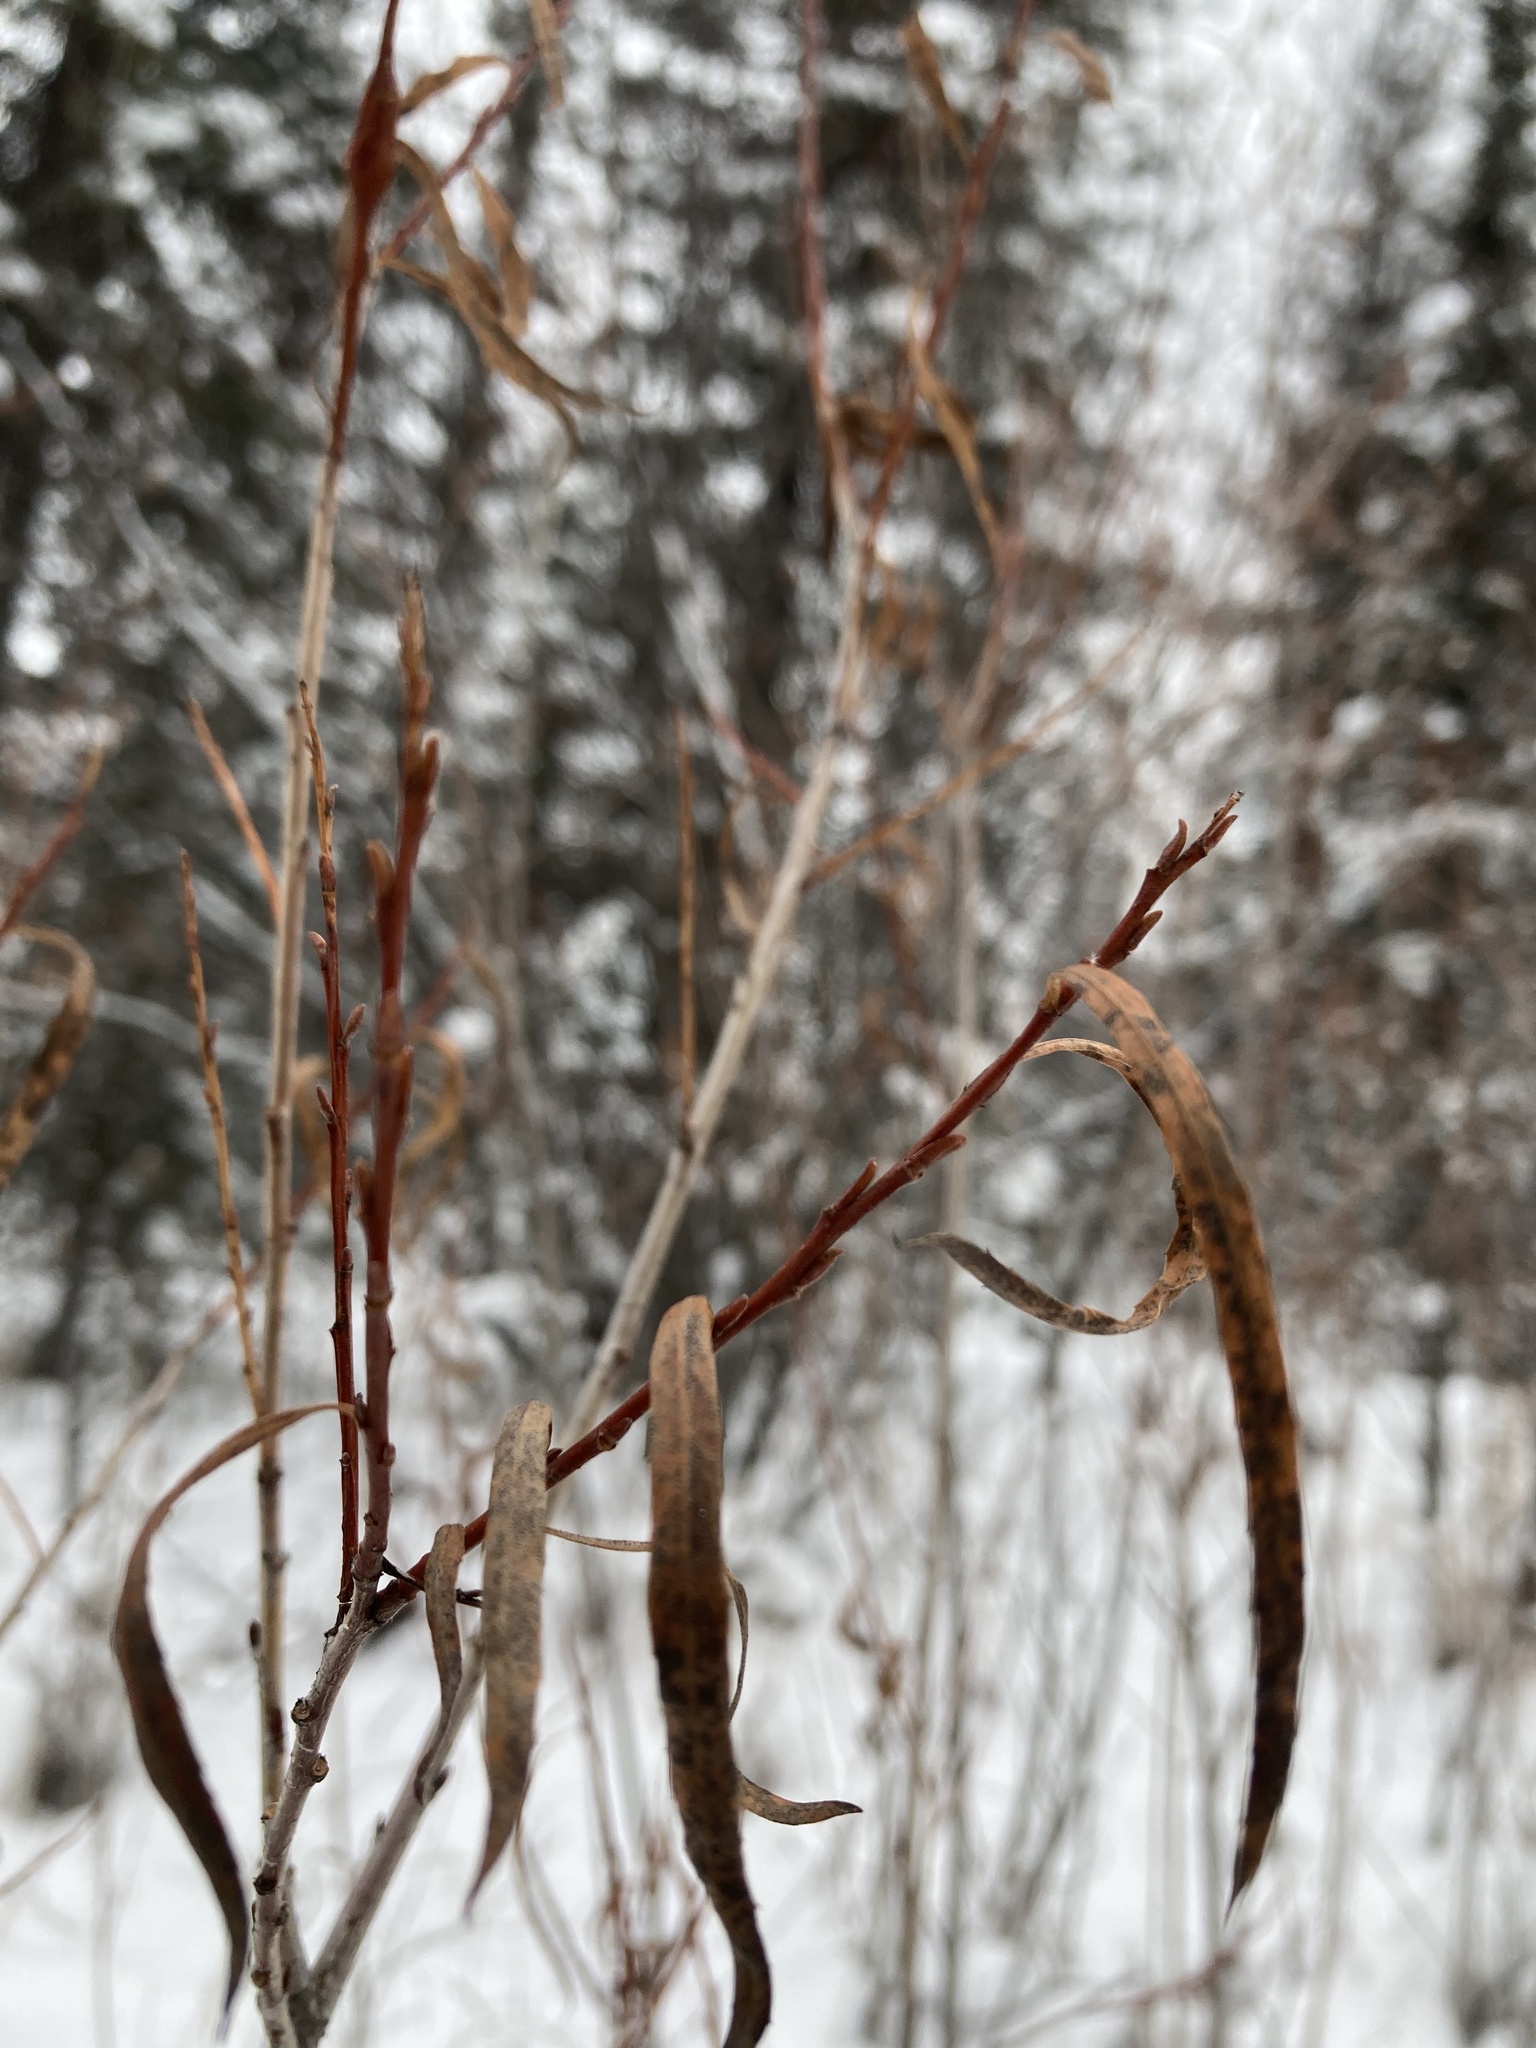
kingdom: Plantae
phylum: Tracheophyta
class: Magnoliopsida
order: Malpighiales
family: Salicaceae
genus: Salix
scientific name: Salix interior
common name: Sandbar willow
